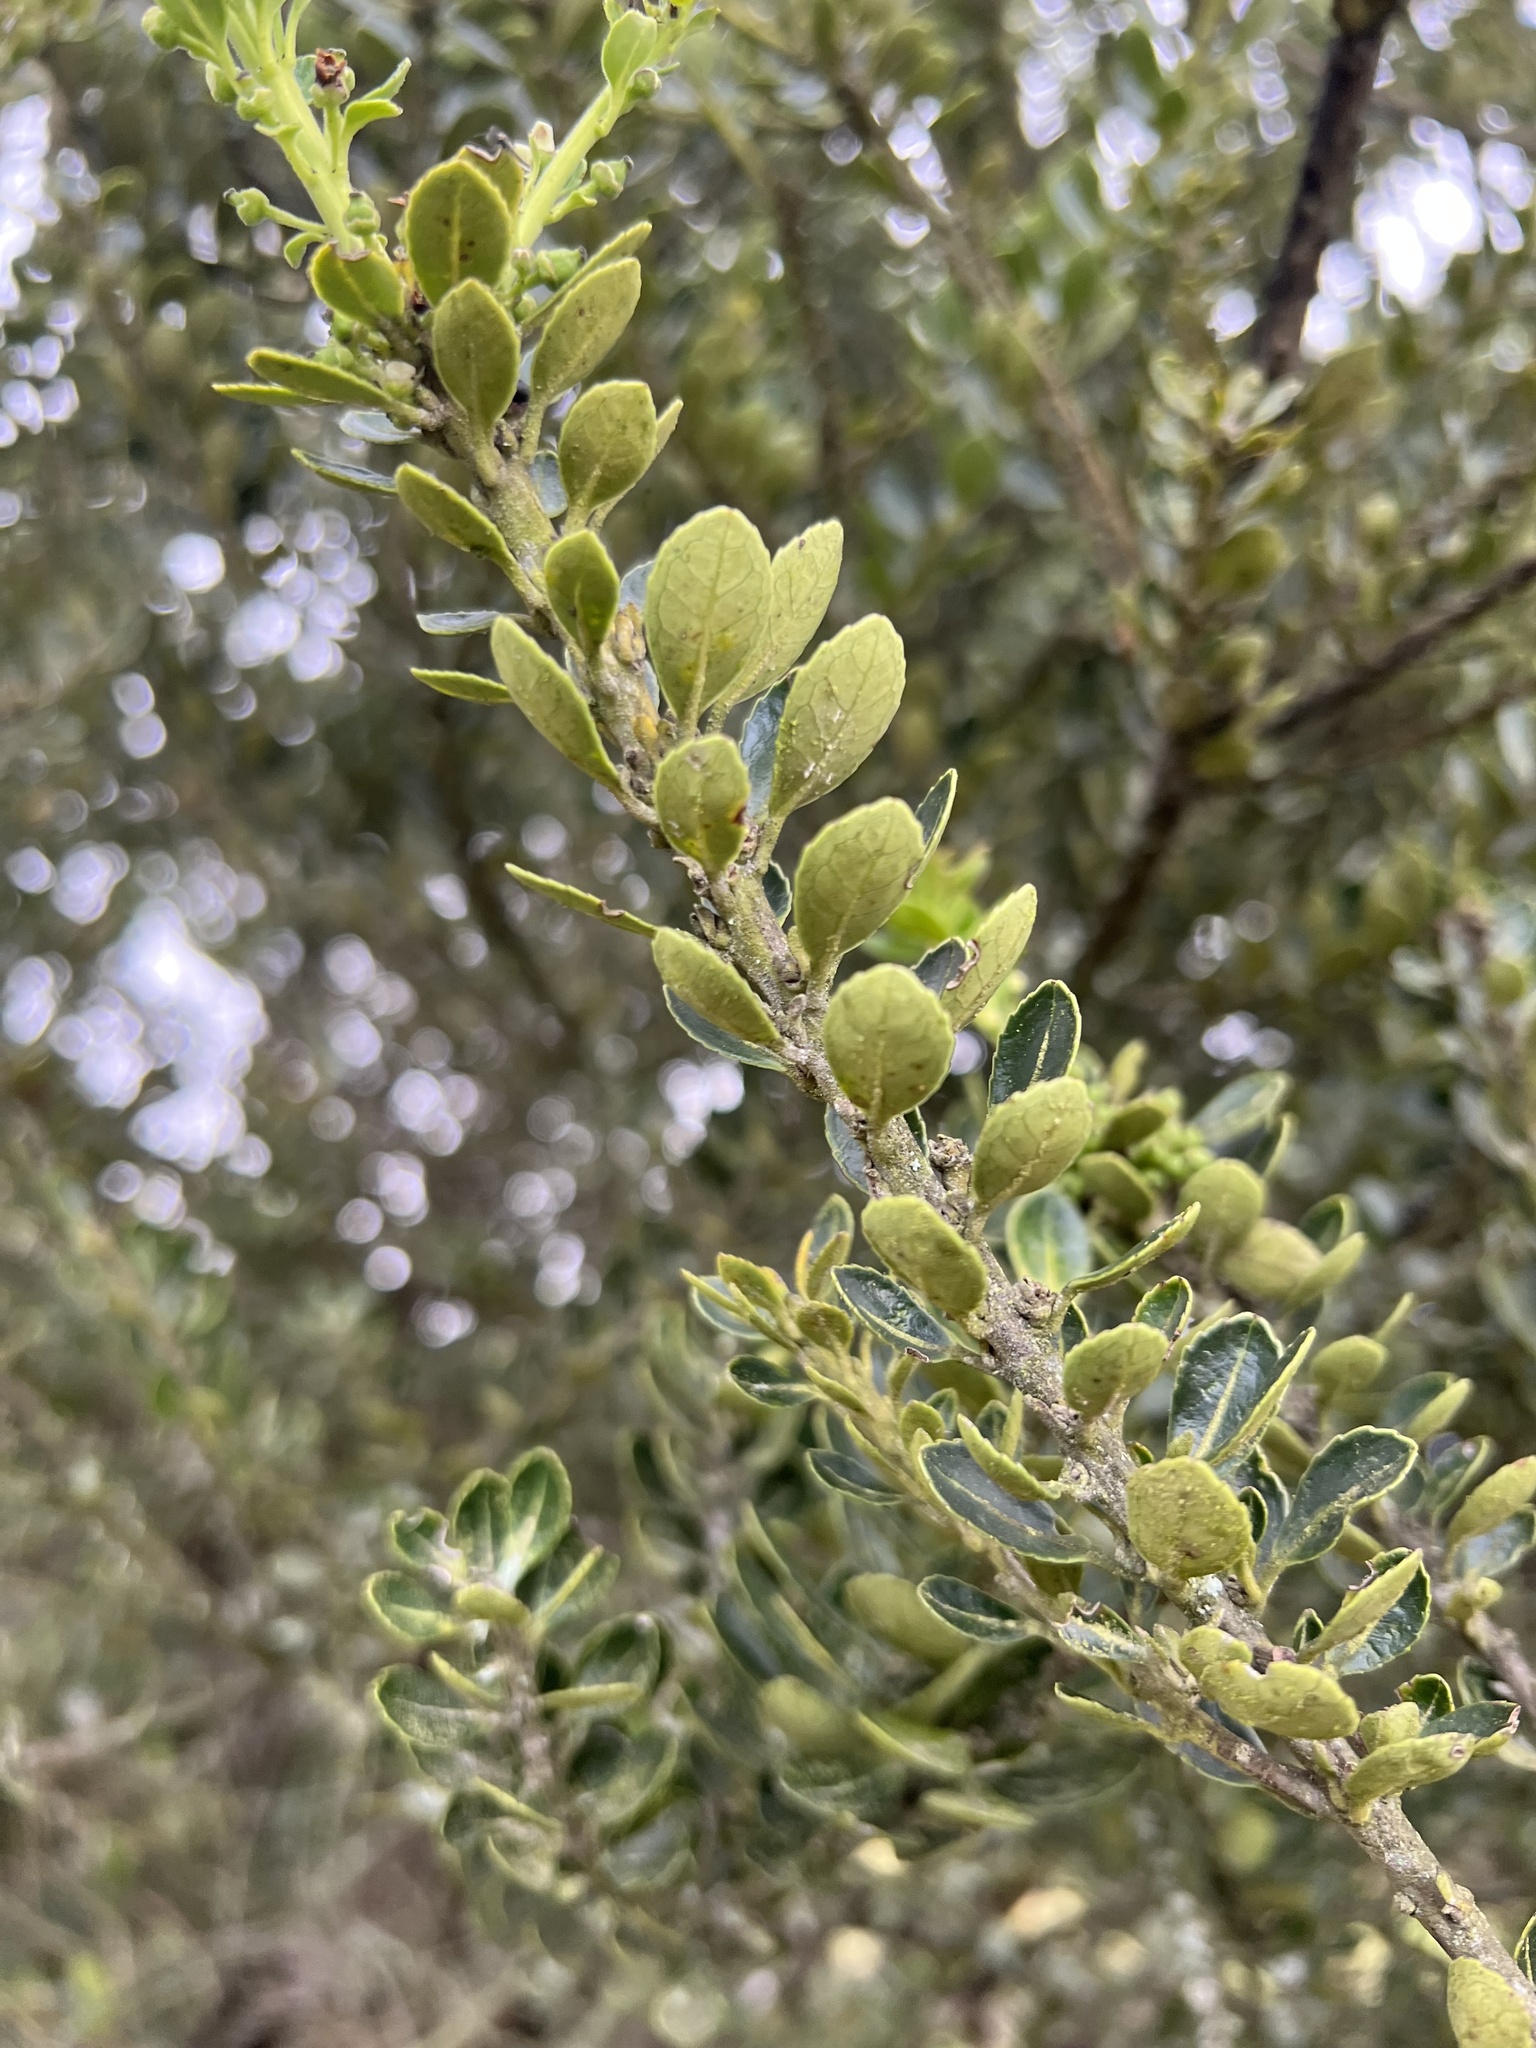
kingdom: Plantae
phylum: Tracheophyta
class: Magnoliopsida
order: Aquifoliales
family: Aquifoliaceae
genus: Ilex
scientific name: Ilex microphylla
